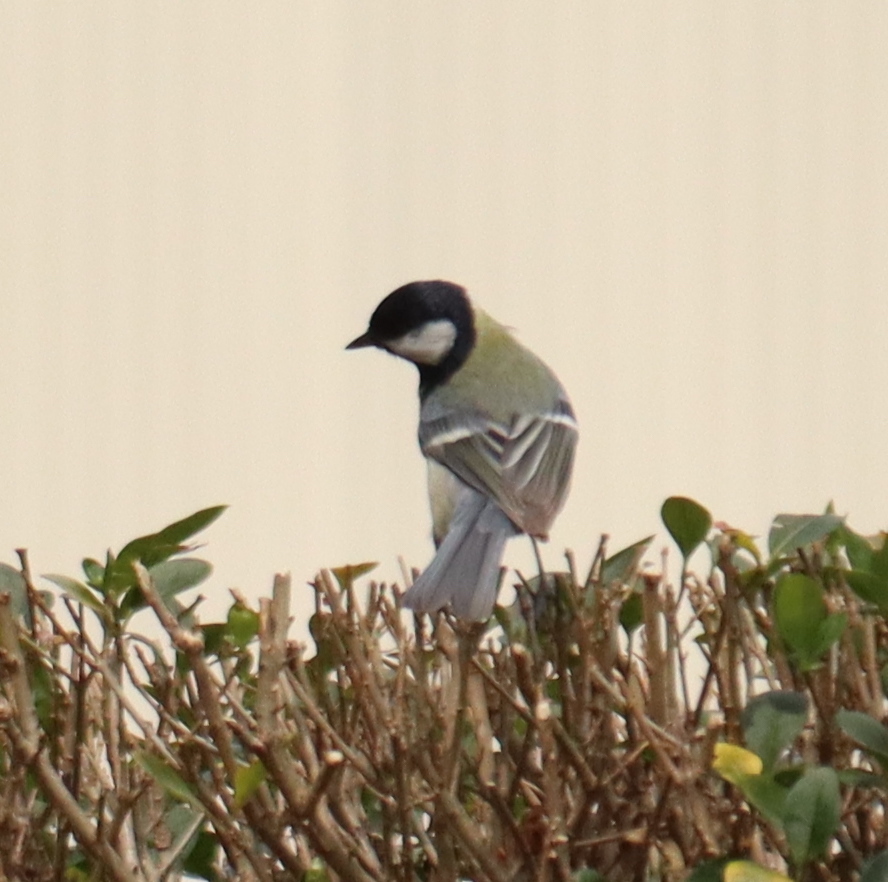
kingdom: Animalia
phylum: Chordata
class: Aves
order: Passeriformes
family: Paridae
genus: Parus
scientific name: Parus major
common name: Great tit
